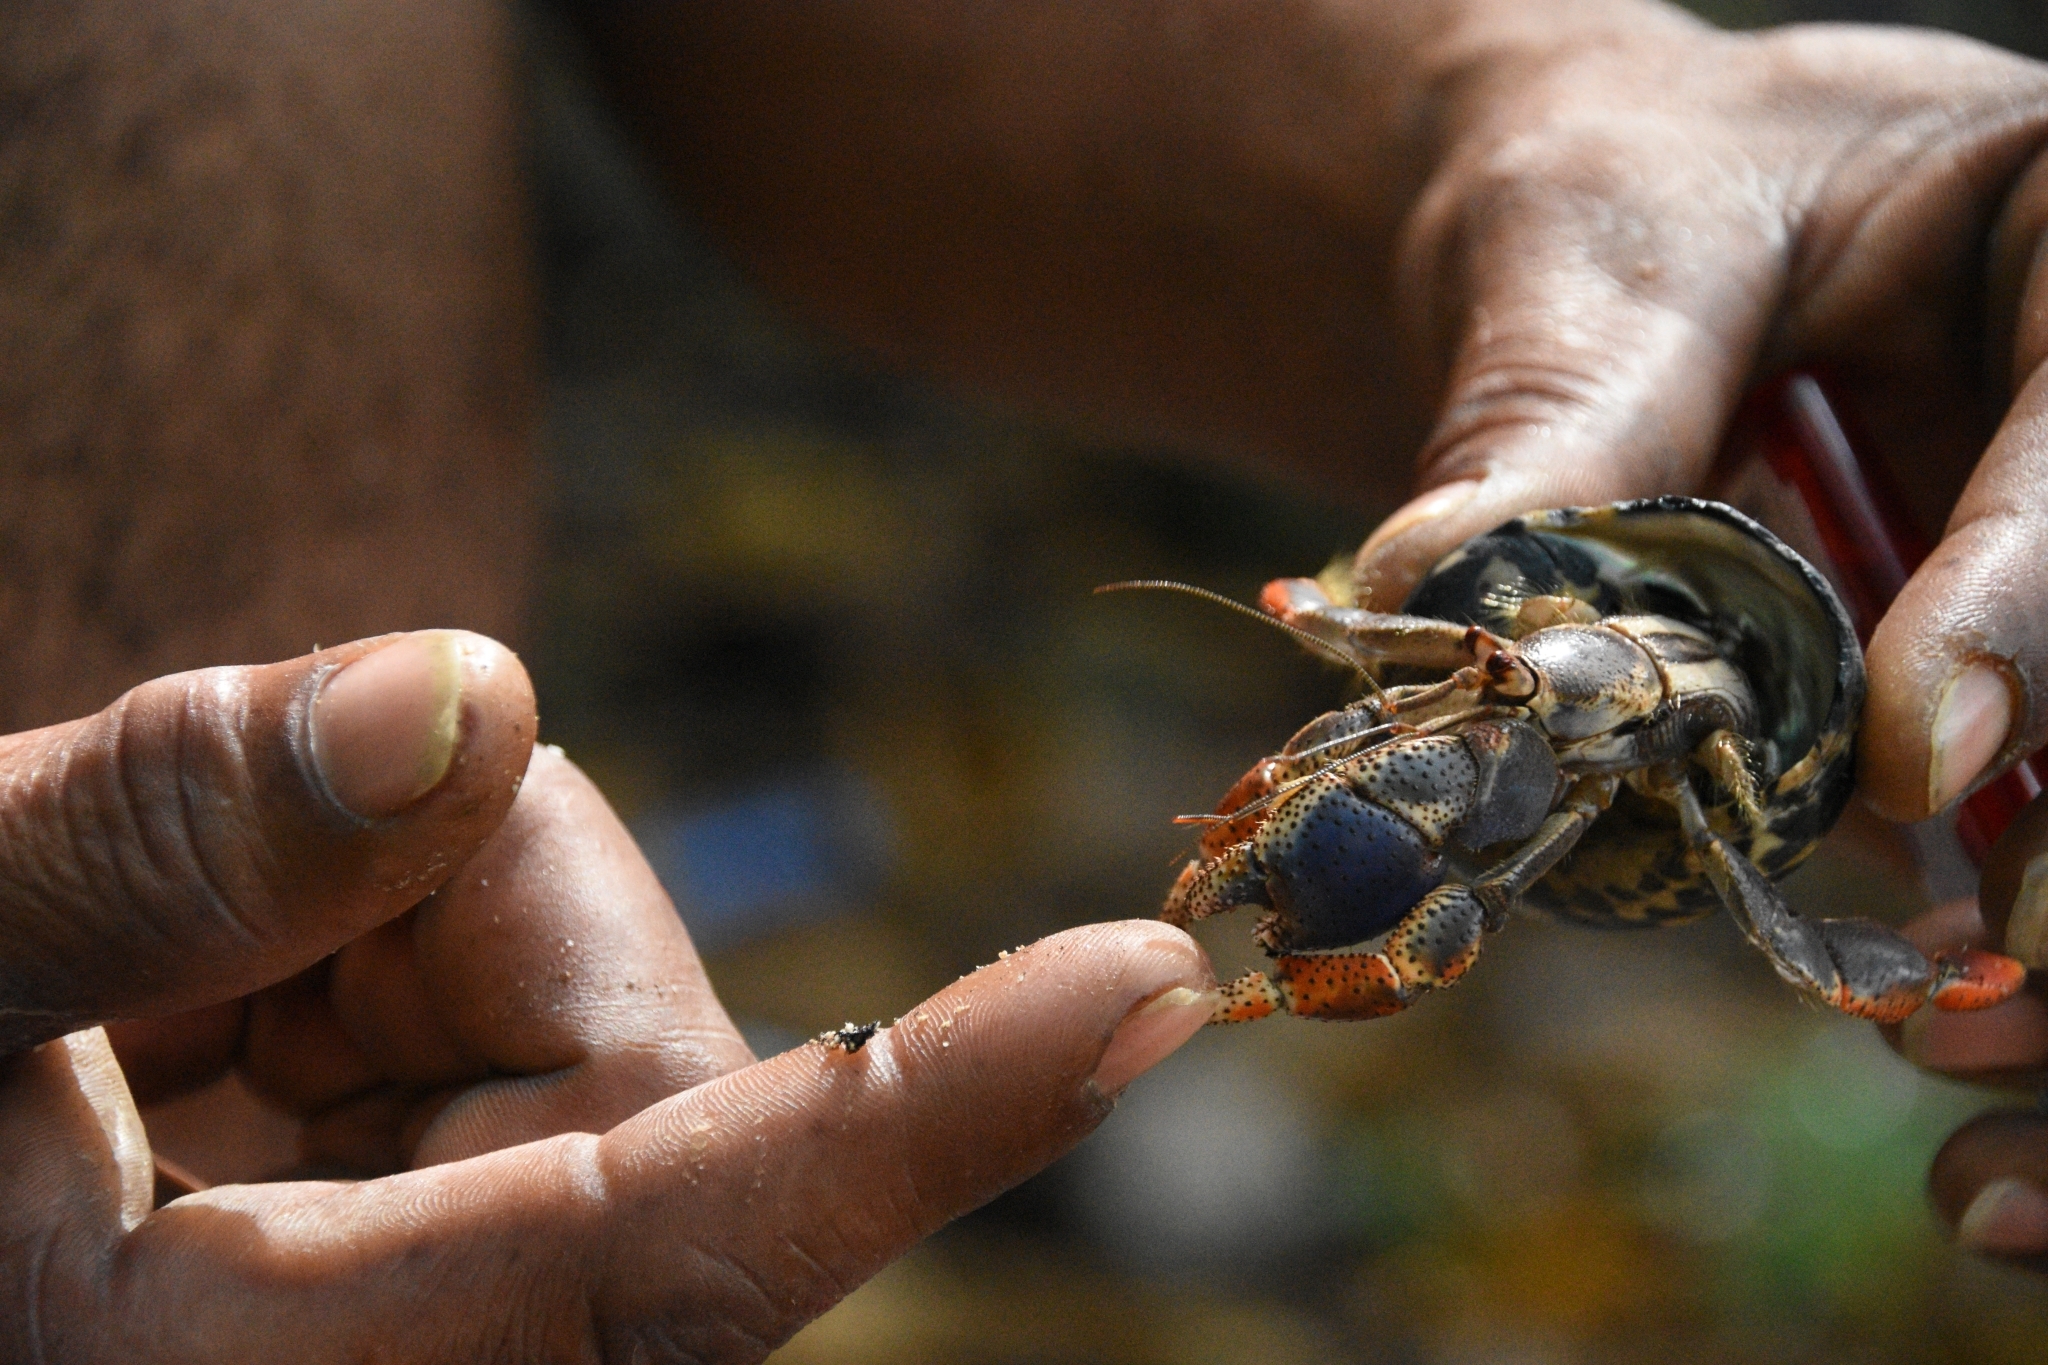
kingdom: Animalia
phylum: Arthropoda
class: Malacostraca
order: Decapoda
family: Coenobitidae
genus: Coenobita
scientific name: Coenobita clypeatus
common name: Caribbean hermit crab
